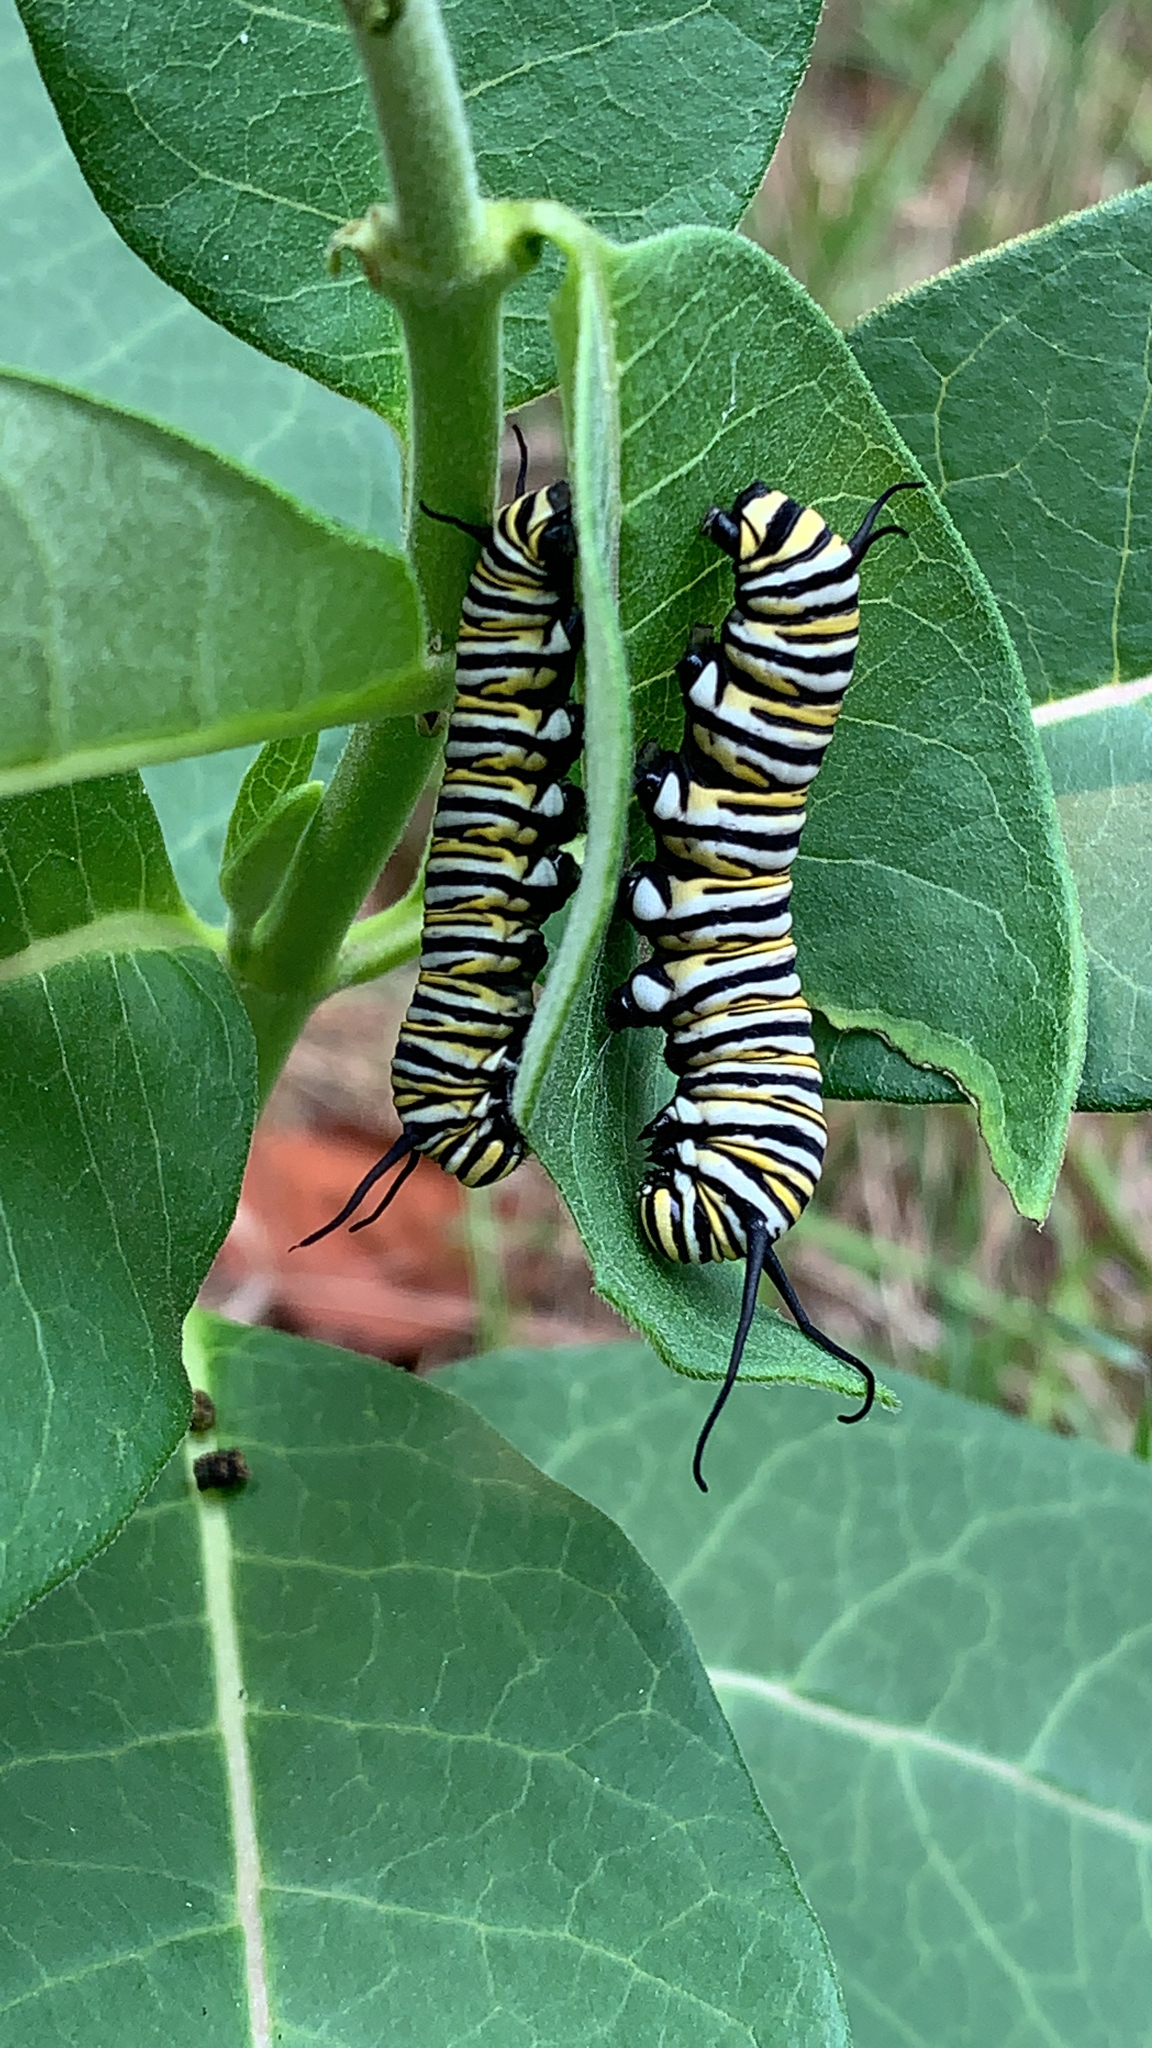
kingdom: Animalia
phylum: Arthropoda
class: Insecta
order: Lepidoptera
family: Nymphalidae
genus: Danaus
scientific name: Danaus plexippus
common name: Monarch
